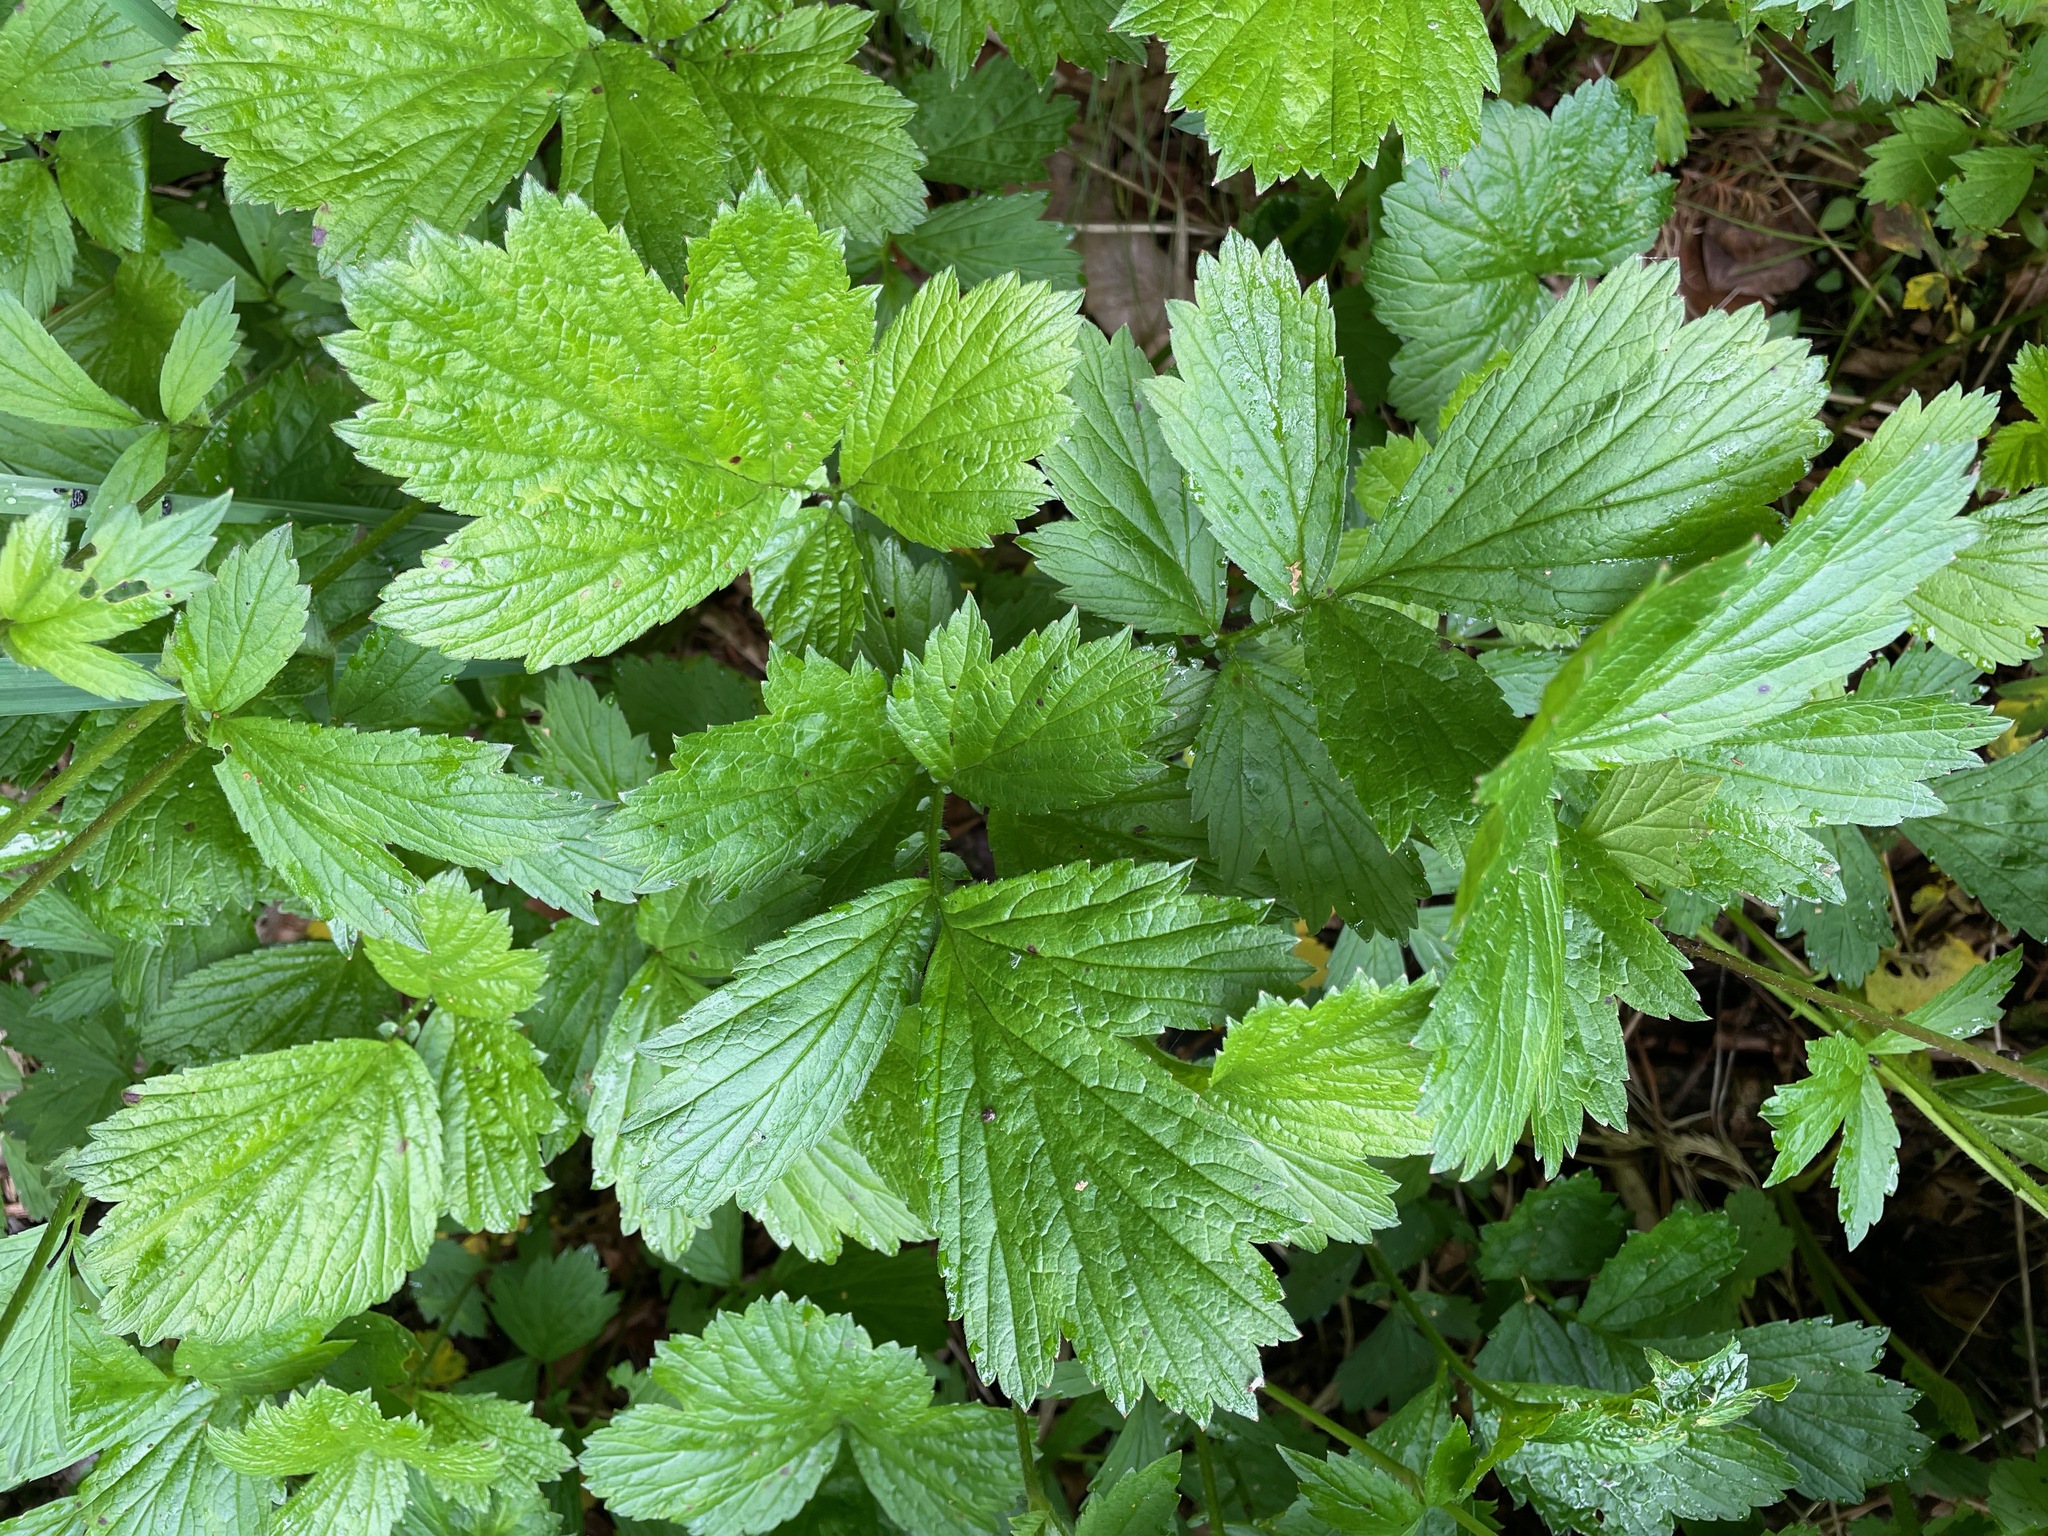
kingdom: Plantae
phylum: Tracheophyta
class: Magnoliopsida
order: Rosales
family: Rosaceae
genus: Geum
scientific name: Geum rivale
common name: Water avens
